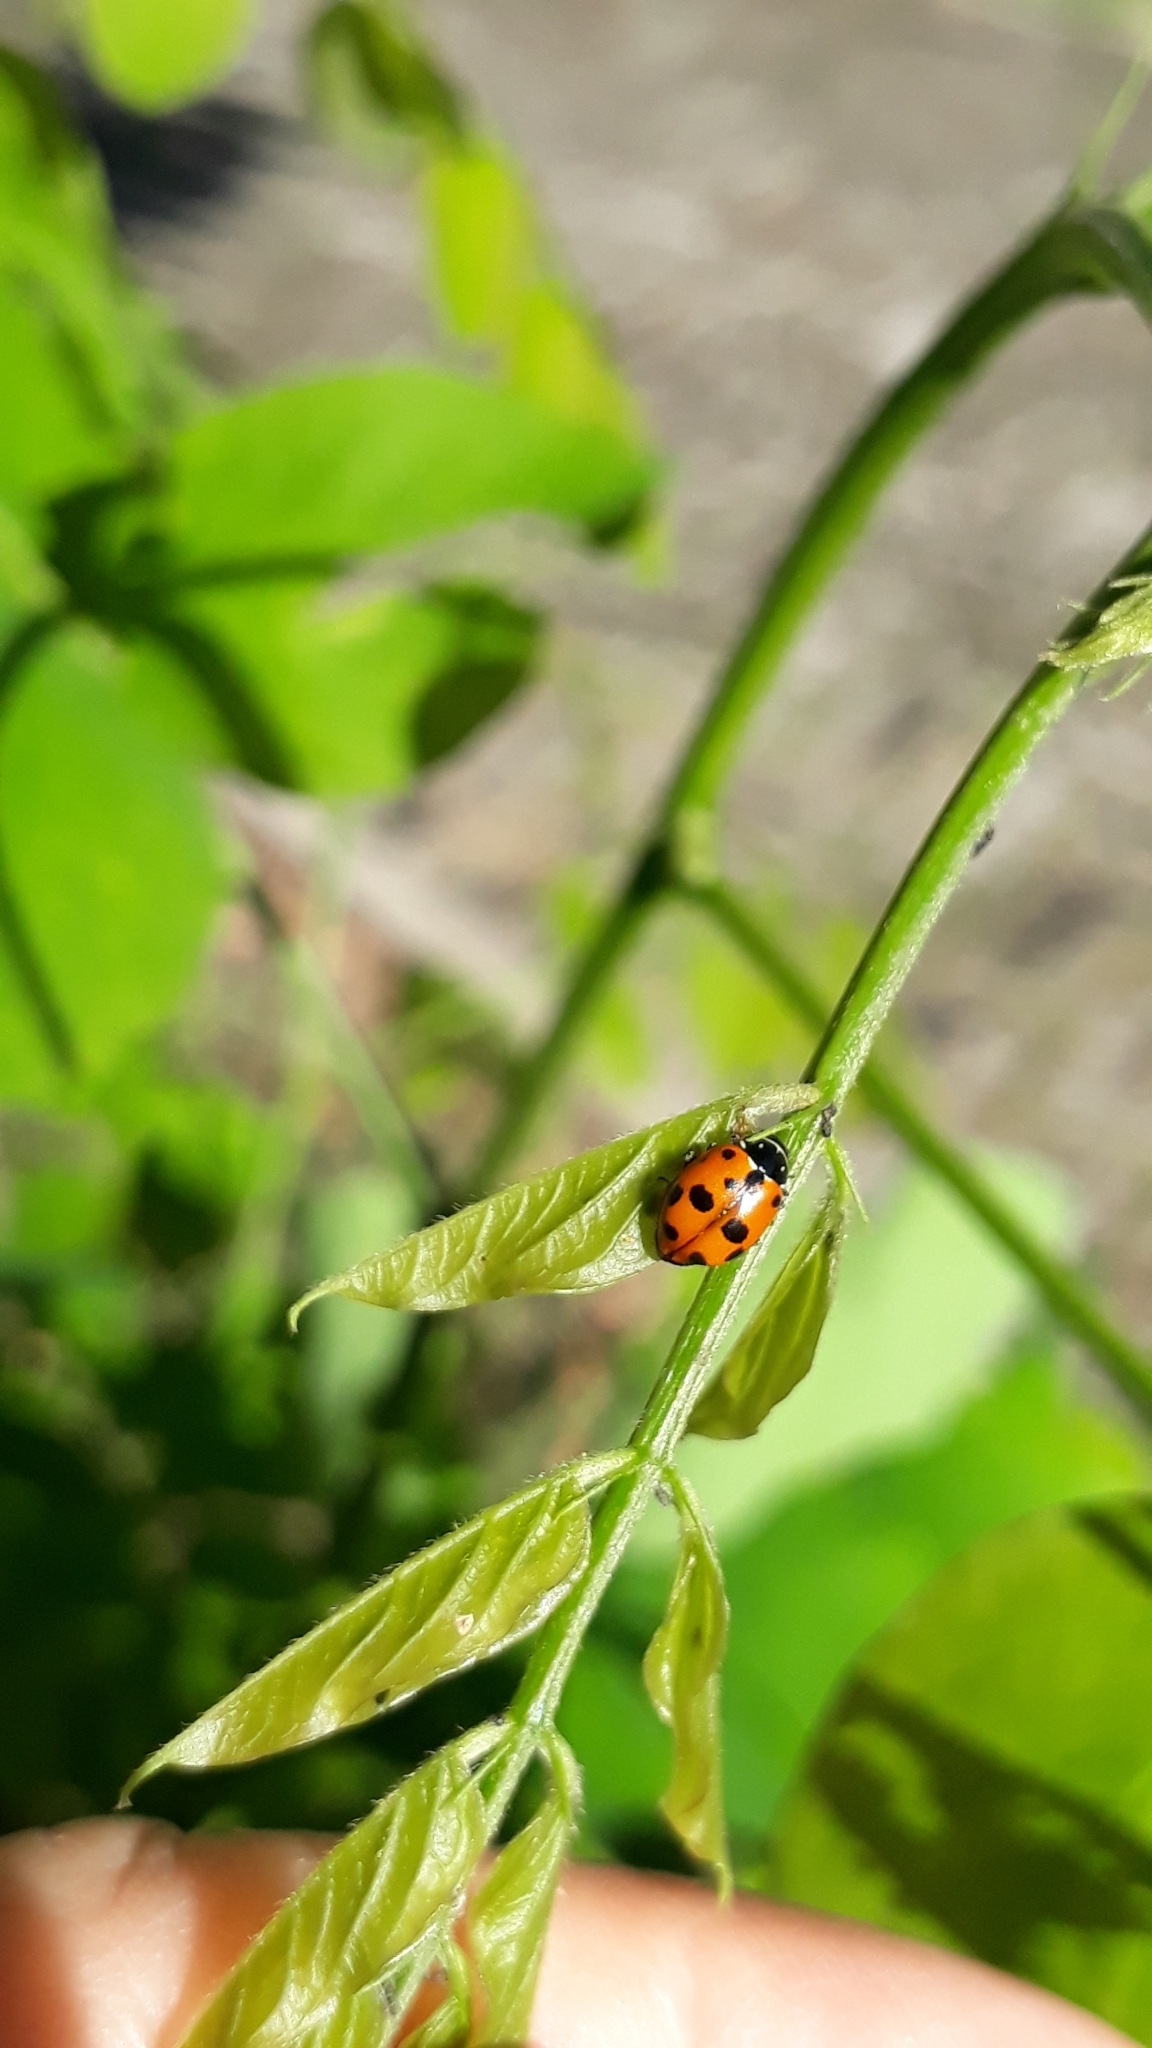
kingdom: Animalia
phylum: Arthropoda
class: Insecta
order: Coleoptera
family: Coccinellidae
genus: Hippodamia
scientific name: Hippodamia variegata
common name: Ladybird beetle
